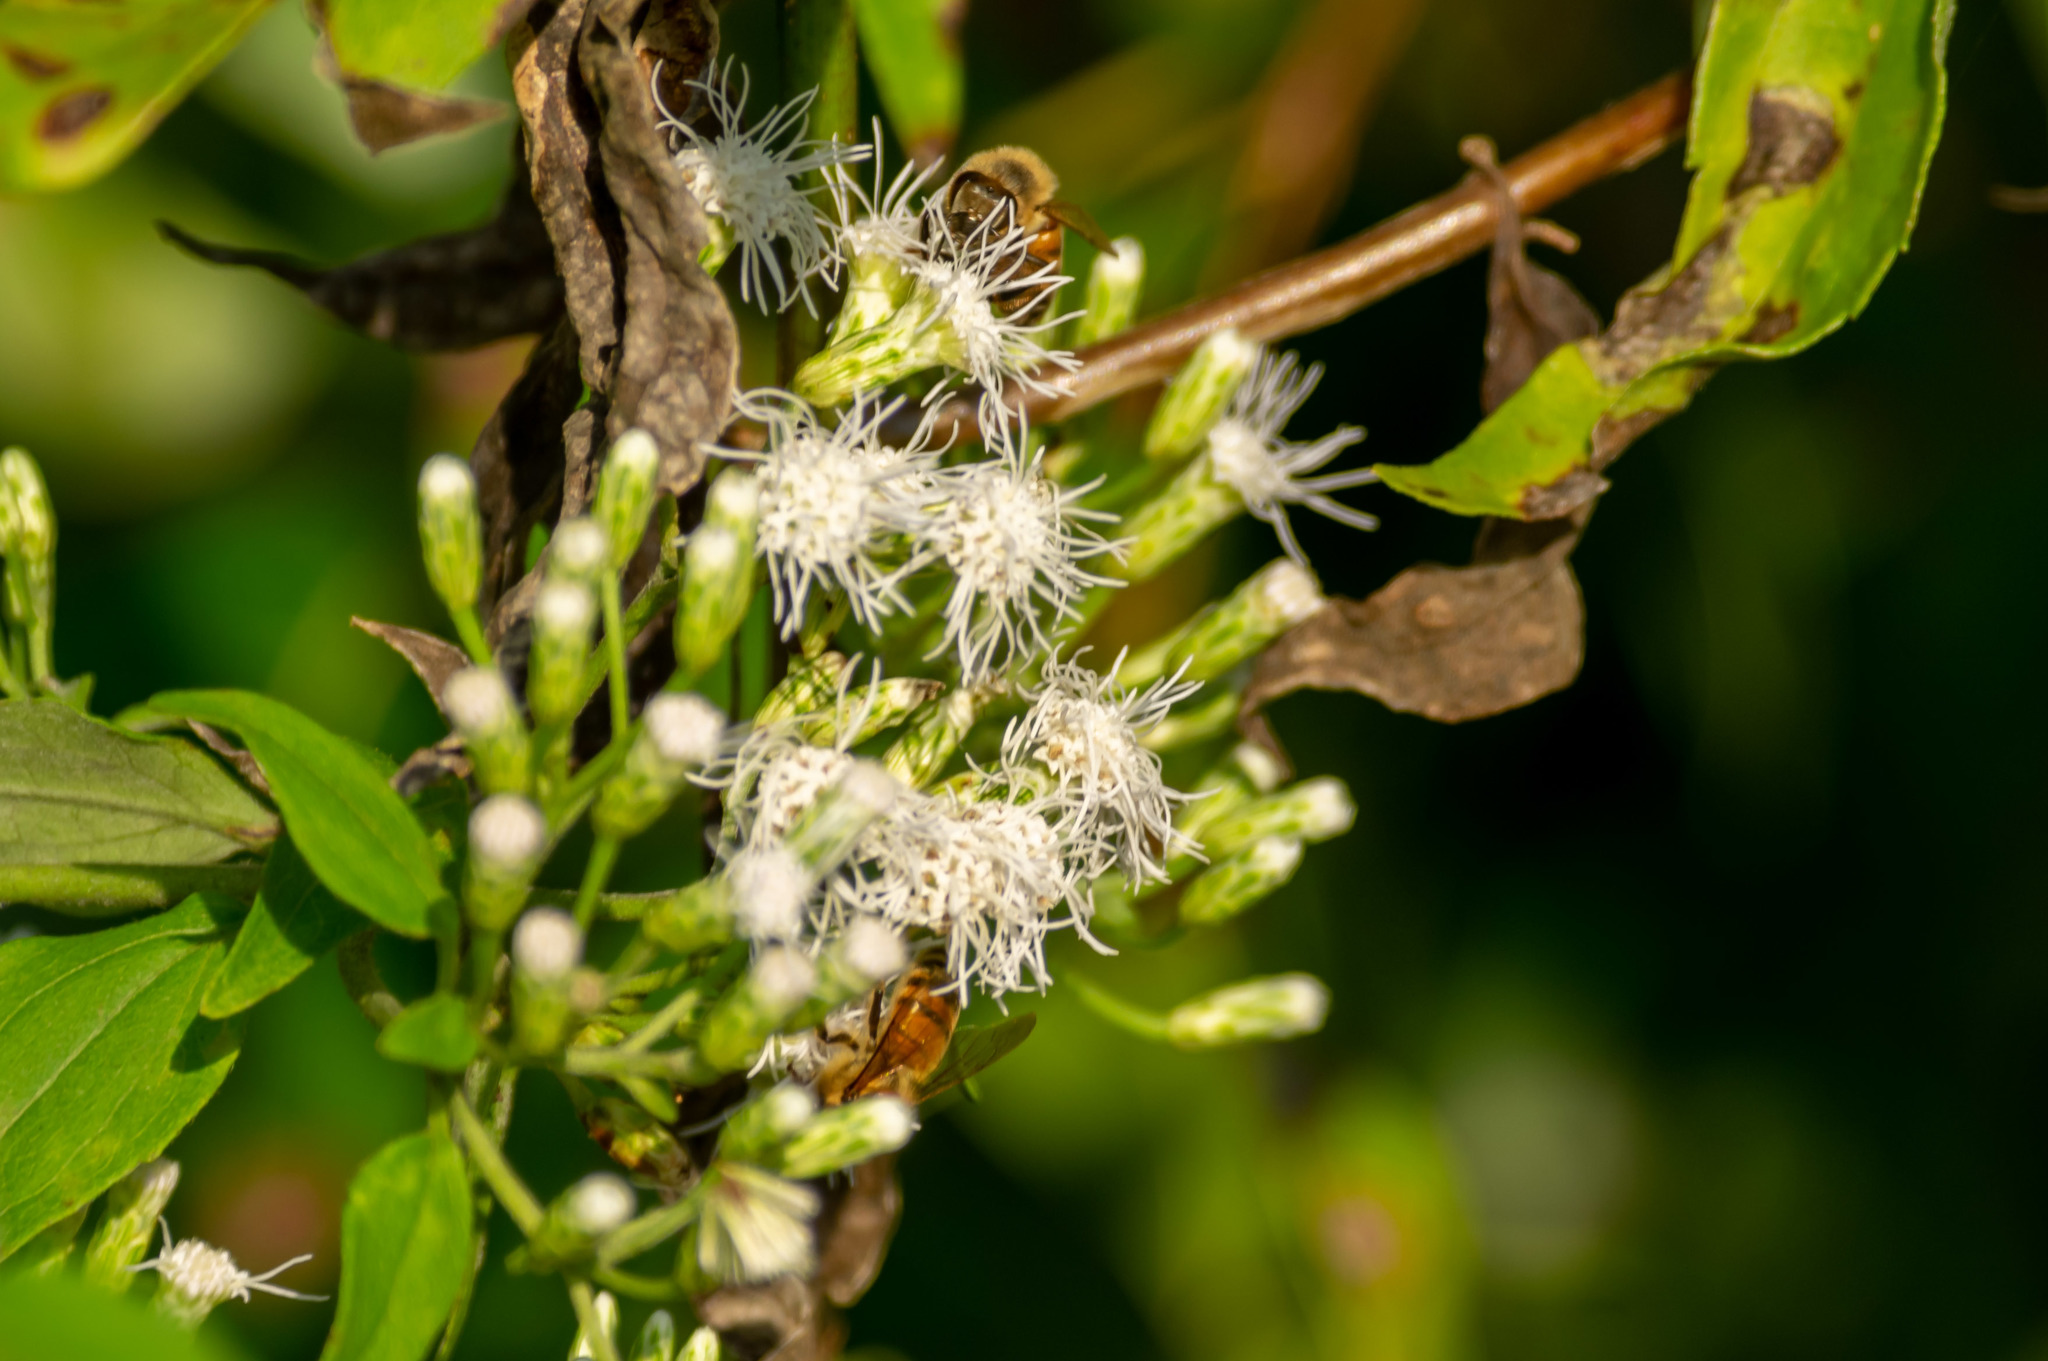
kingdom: Animalia
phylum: Arthropoda
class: Insecta
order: Hymenoptera
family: Apidae
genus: Apis
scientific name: Apis mellifera
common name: Honey bee
